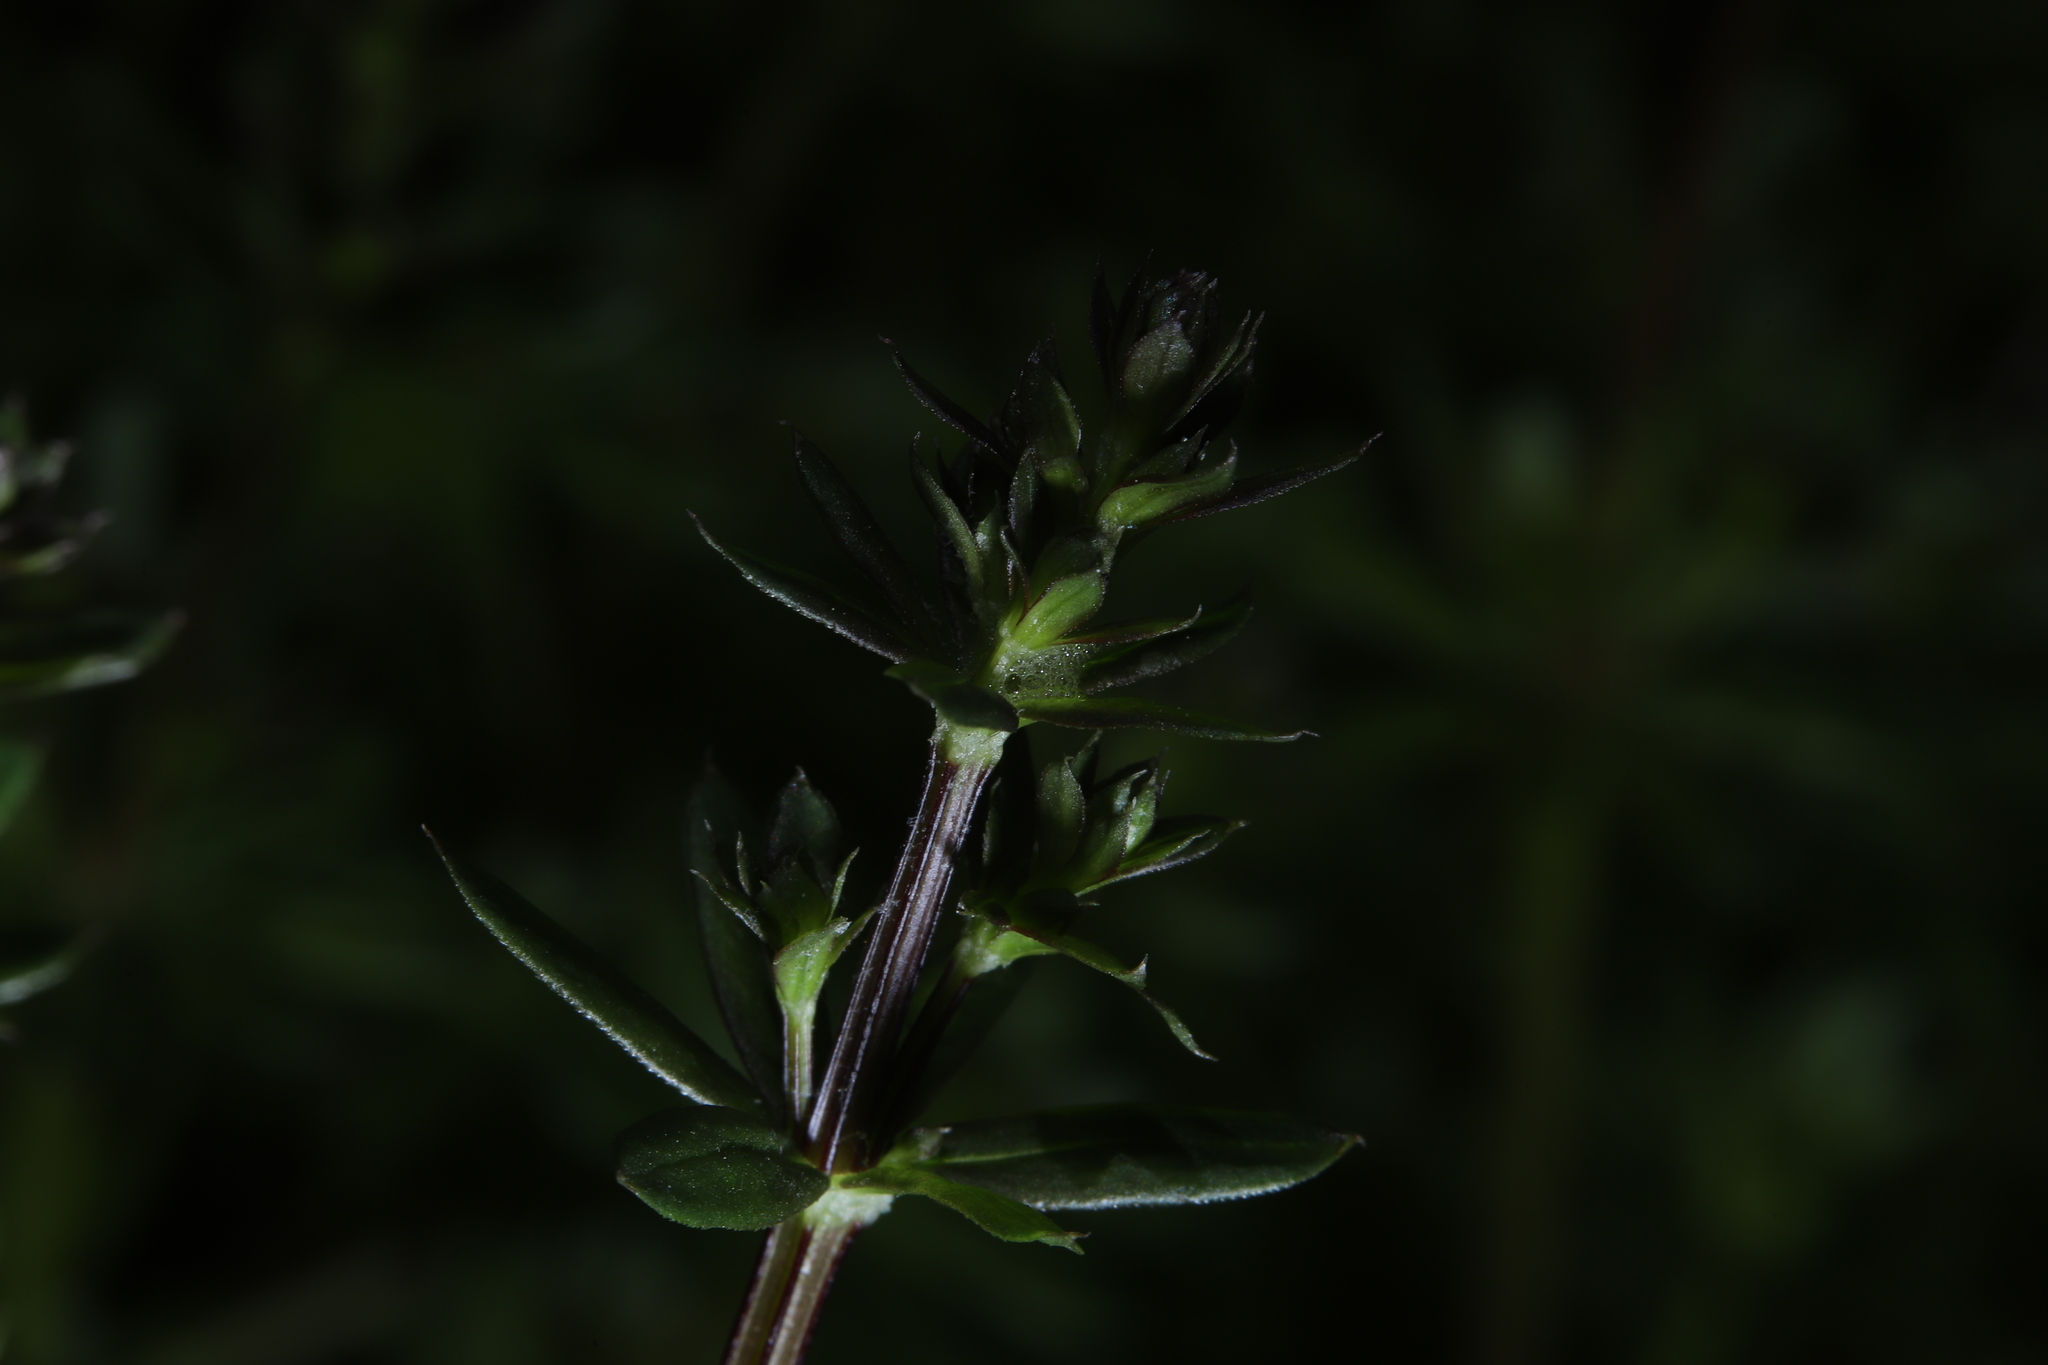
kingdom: Plantae
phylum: Tracheophyta
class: Magnoliopsida
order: Gentianales
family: Rubiaceae
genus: Galium
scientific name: Galium mollugo
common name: Hedge bedstraw
